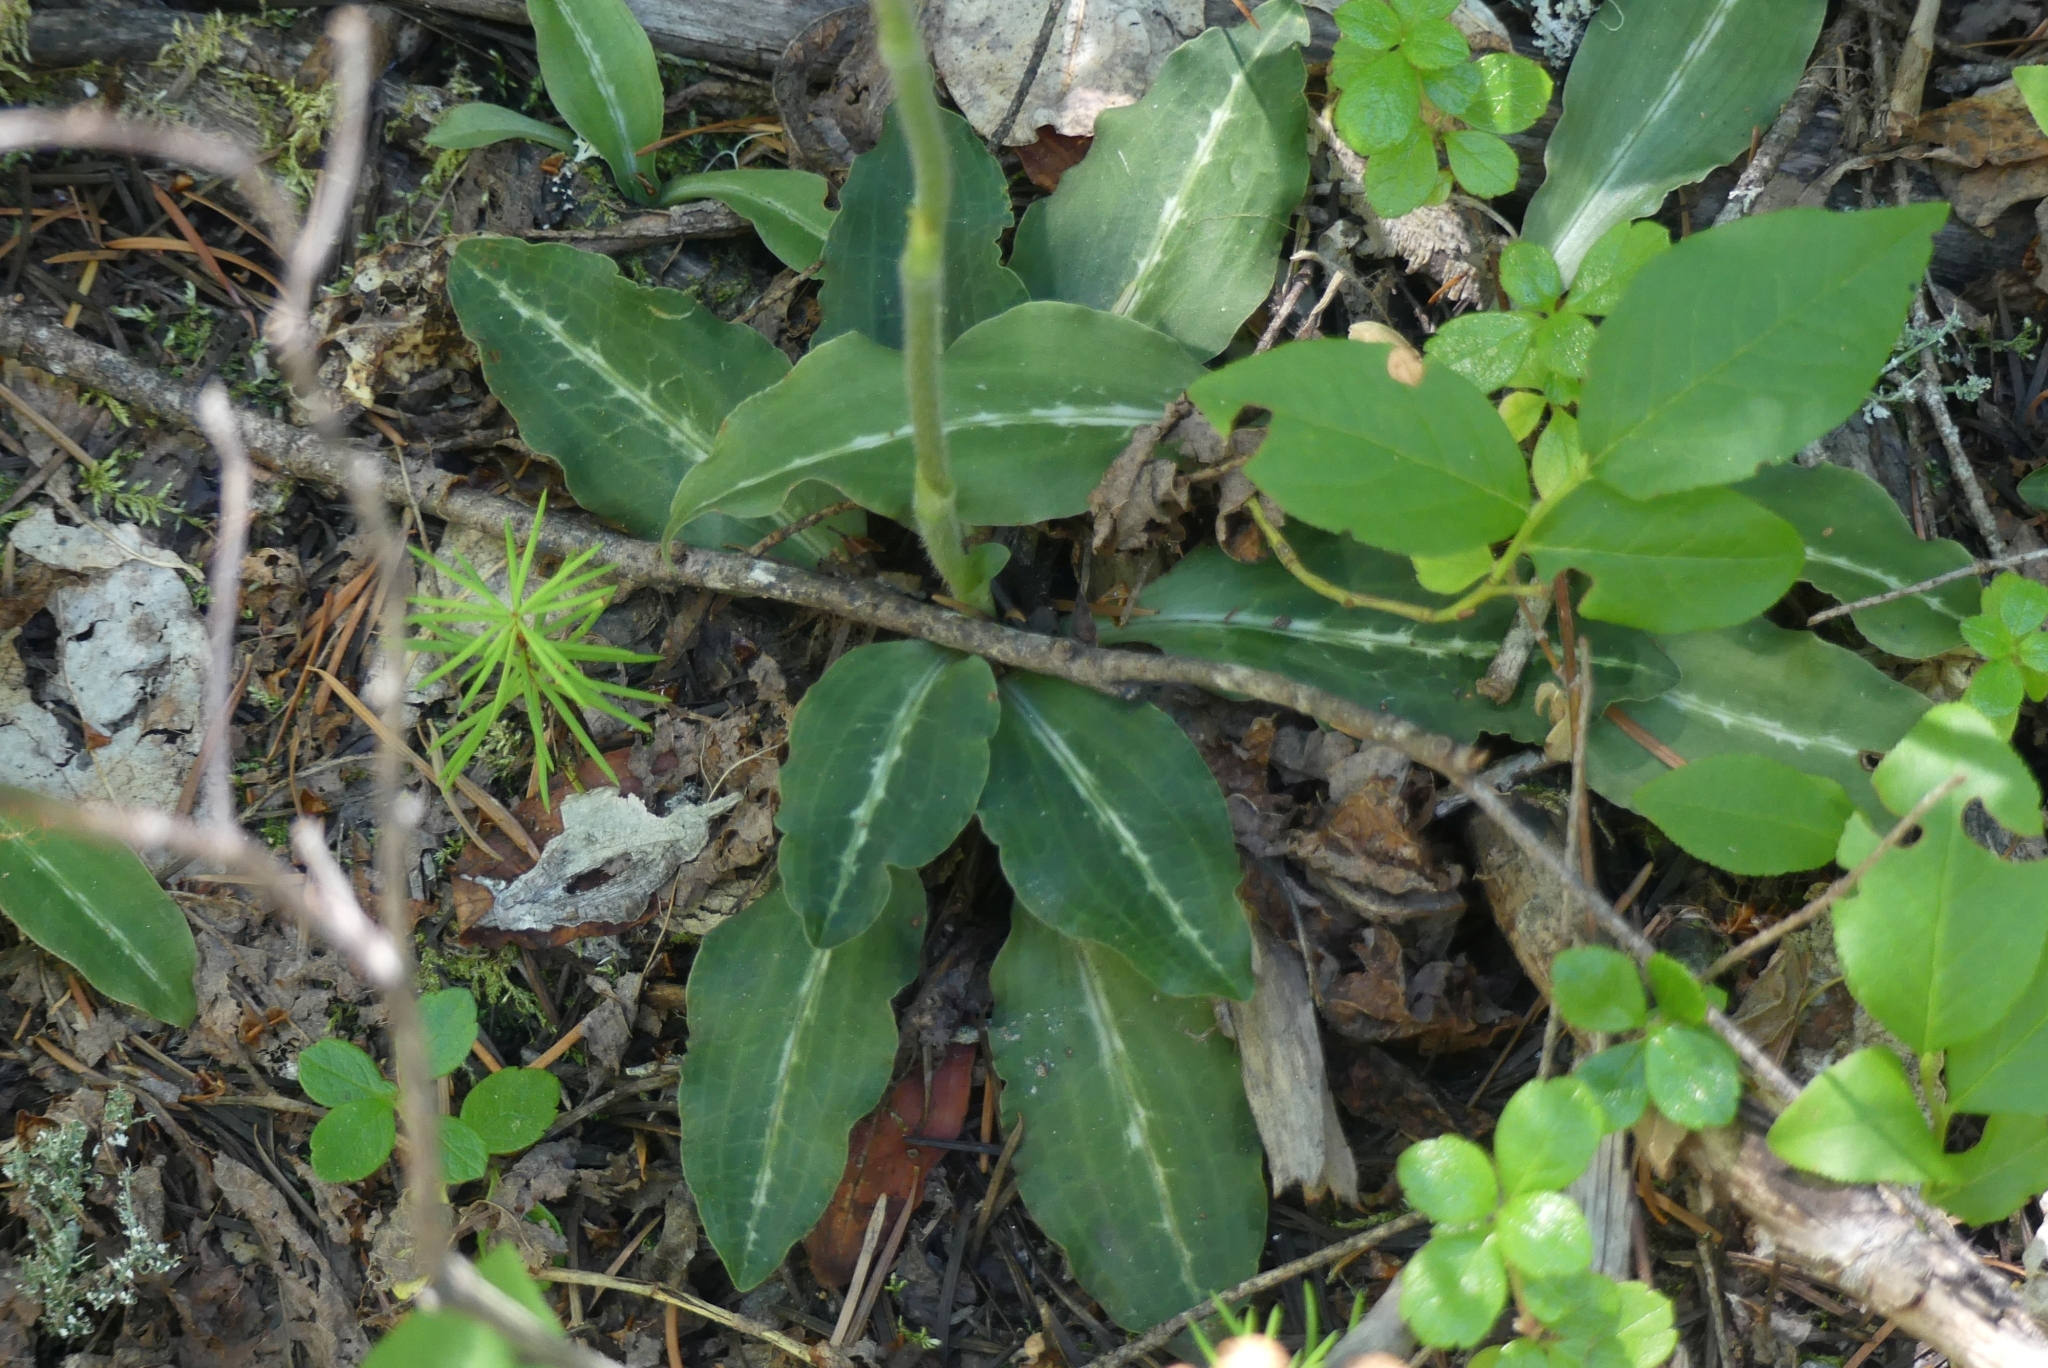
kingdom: Plantae
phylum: Tracheophyta
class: Liliopsida
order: Asparagales
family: Orchidaceae
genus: Goodyera
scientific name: Goodyera oblongifolia
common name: Giant rattlesnake-plantain
